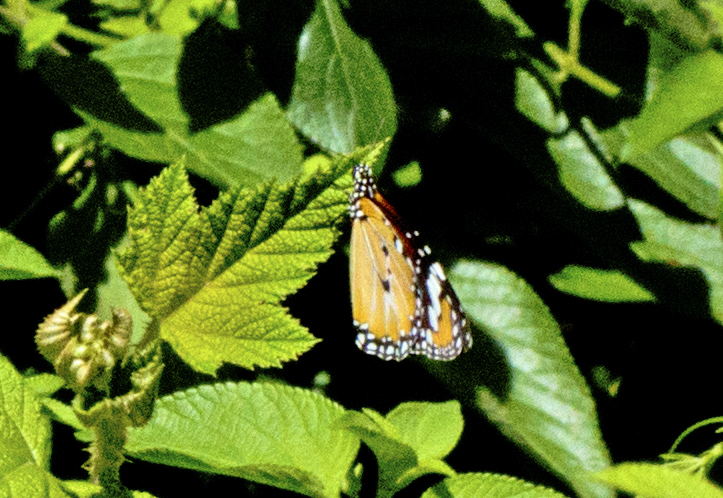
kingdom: Animalia
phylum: Arthropoda
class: Insecta
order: Lepidoptera
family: Nymphalidae
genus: Danaus
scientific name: Danaus chrysippus
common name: Plain tiger
